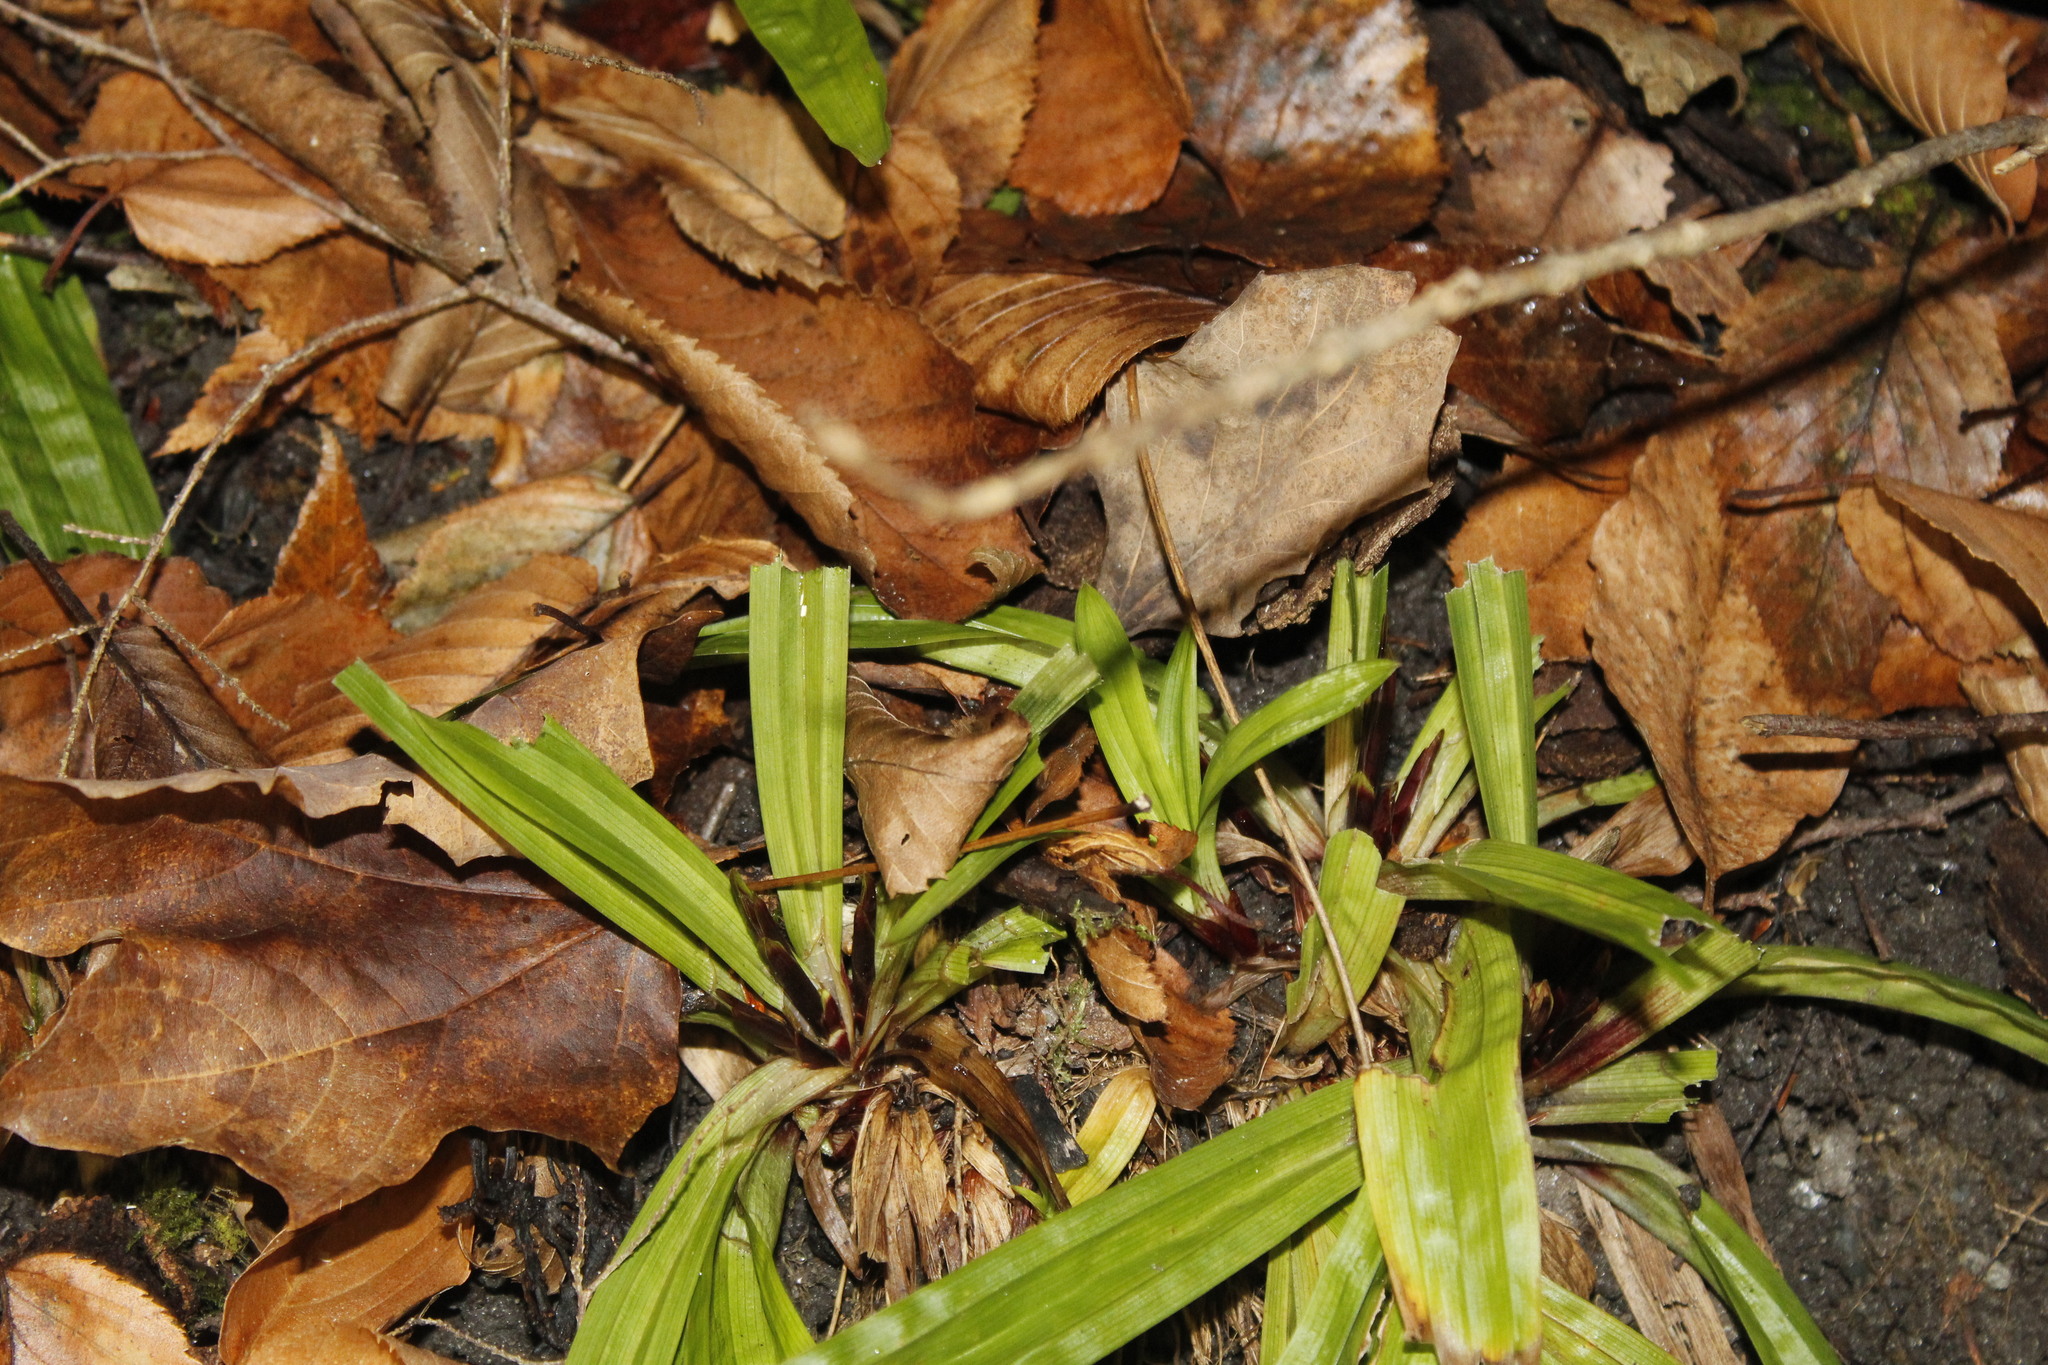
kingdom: Plantae
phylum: Tracheophyta
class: Liliopsida
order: Poales
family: Cyperaceae
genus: Carex
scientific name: Carex plantaginea
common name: Plantain-leaved sedge
